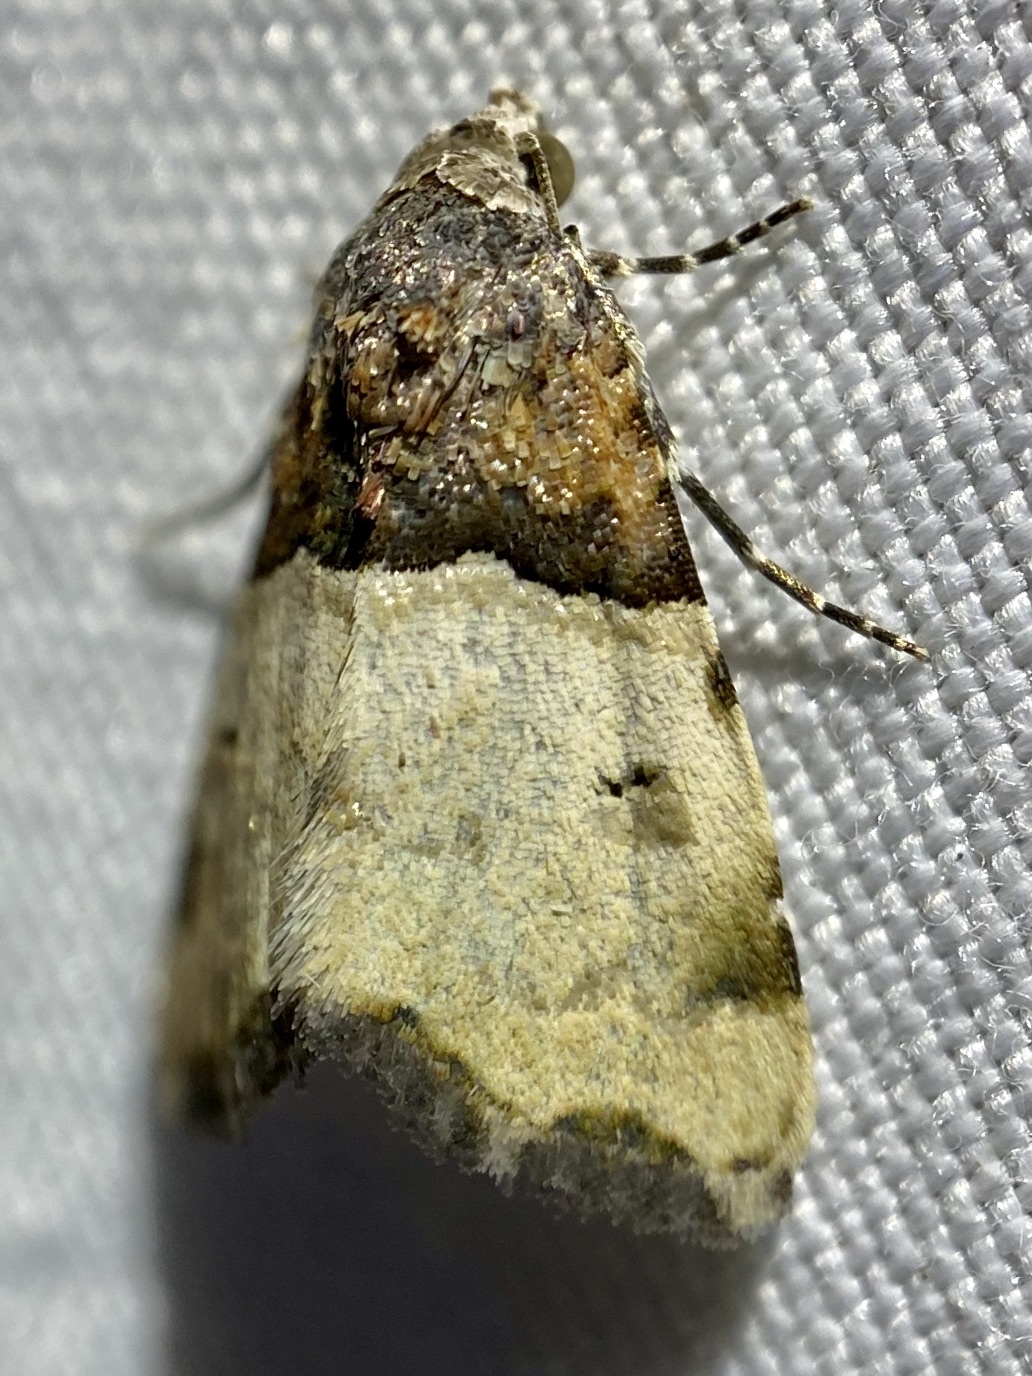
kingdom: Animalia
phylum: Arthropoda
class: Insecta
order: Lepidoptera
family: Noctuidae
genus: Cobubatha
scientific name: Cobubatha dividua
